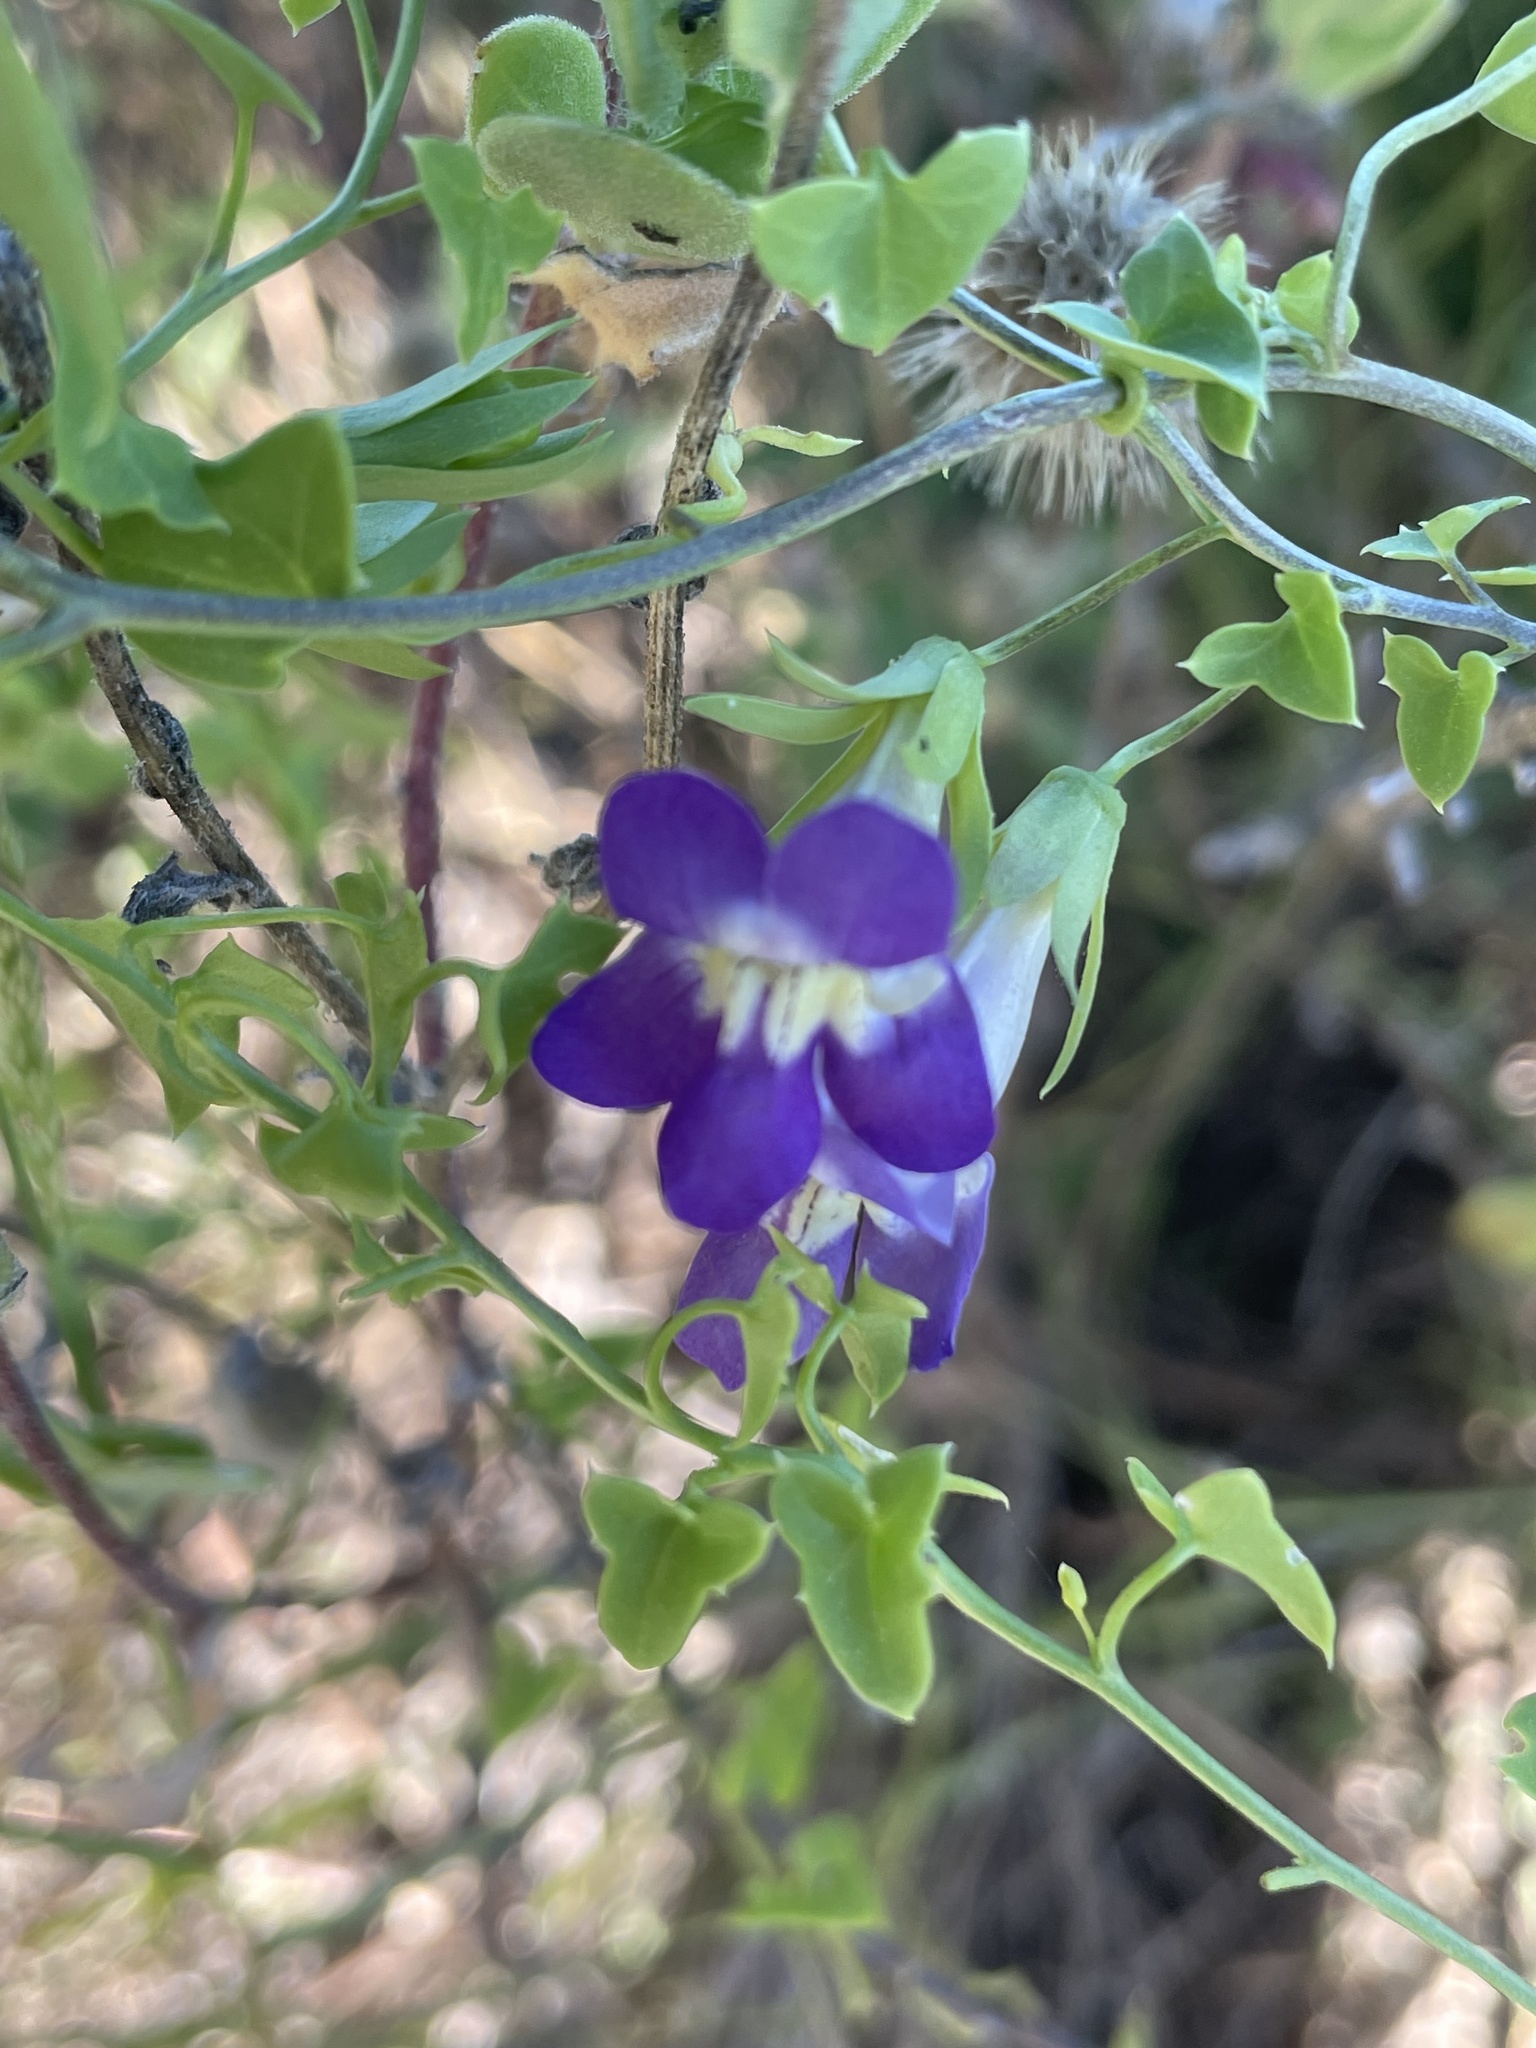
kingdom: Plantae
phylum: Tracheophyta
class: Magnoliopsida
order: Lamiales
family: Plantaginaceae
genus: Maurandella
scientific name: Maurandella antirrhiniflora
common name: Violet twining-snapdragon
